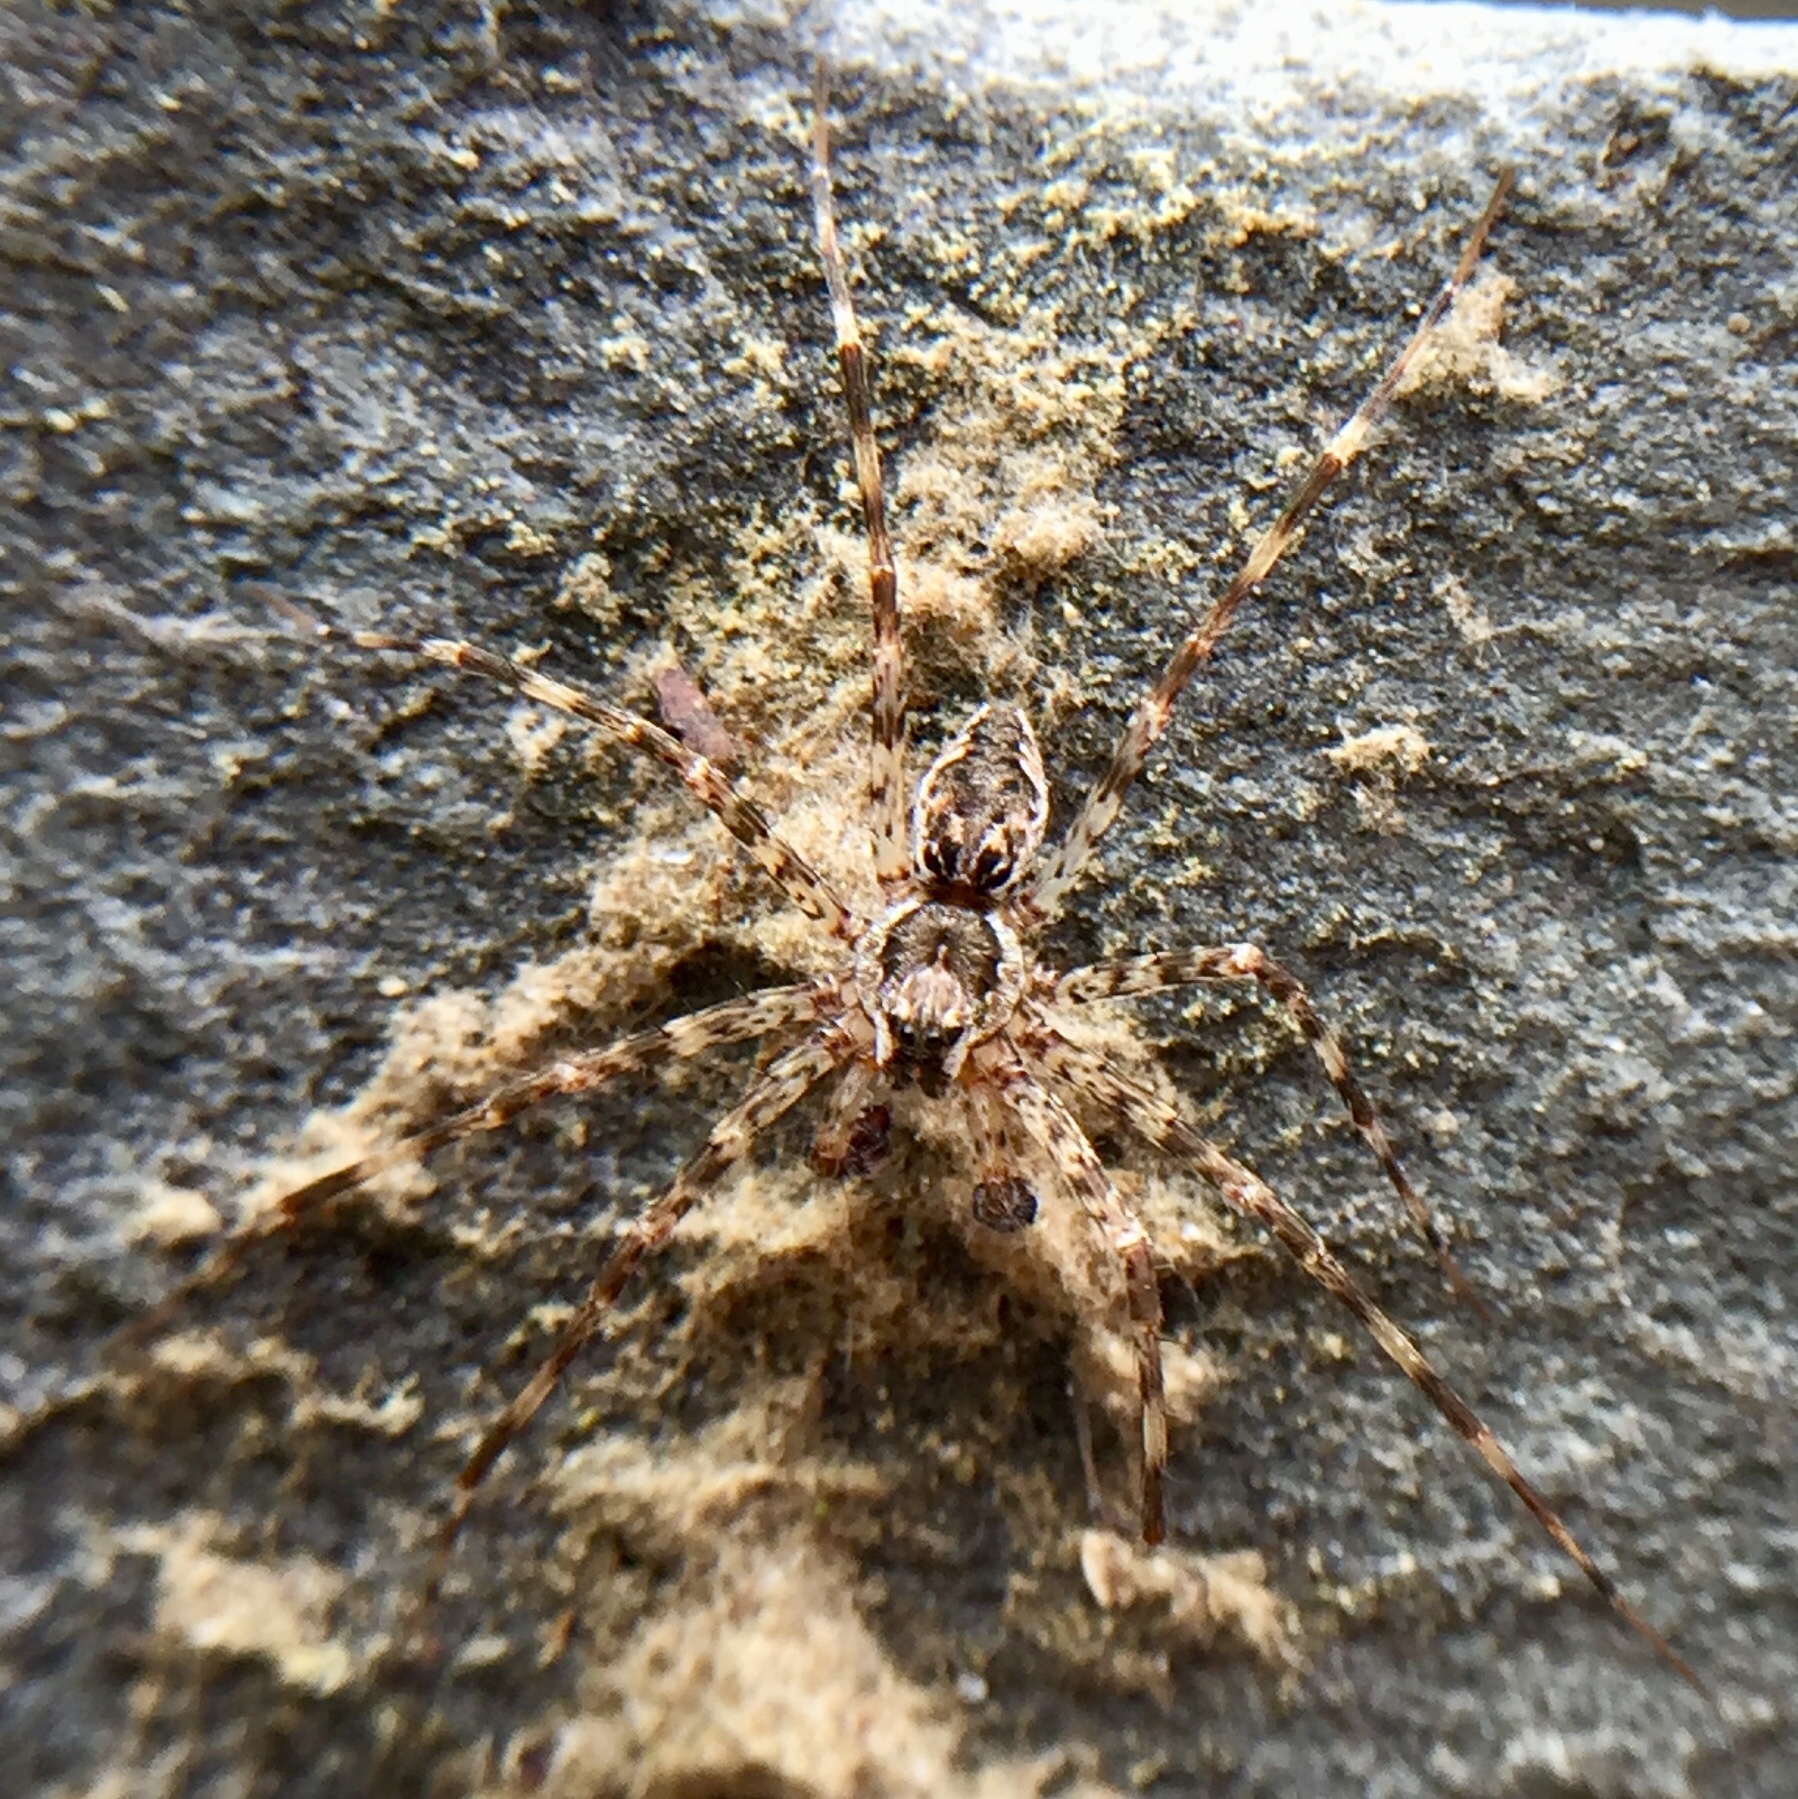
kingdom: Animalia
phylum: Arthropoda
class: Arachnida
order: Araneae
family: Pisauridae
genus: Dolomedes
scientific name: Dolomedes tenebrosus
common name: Dark fishing spider
